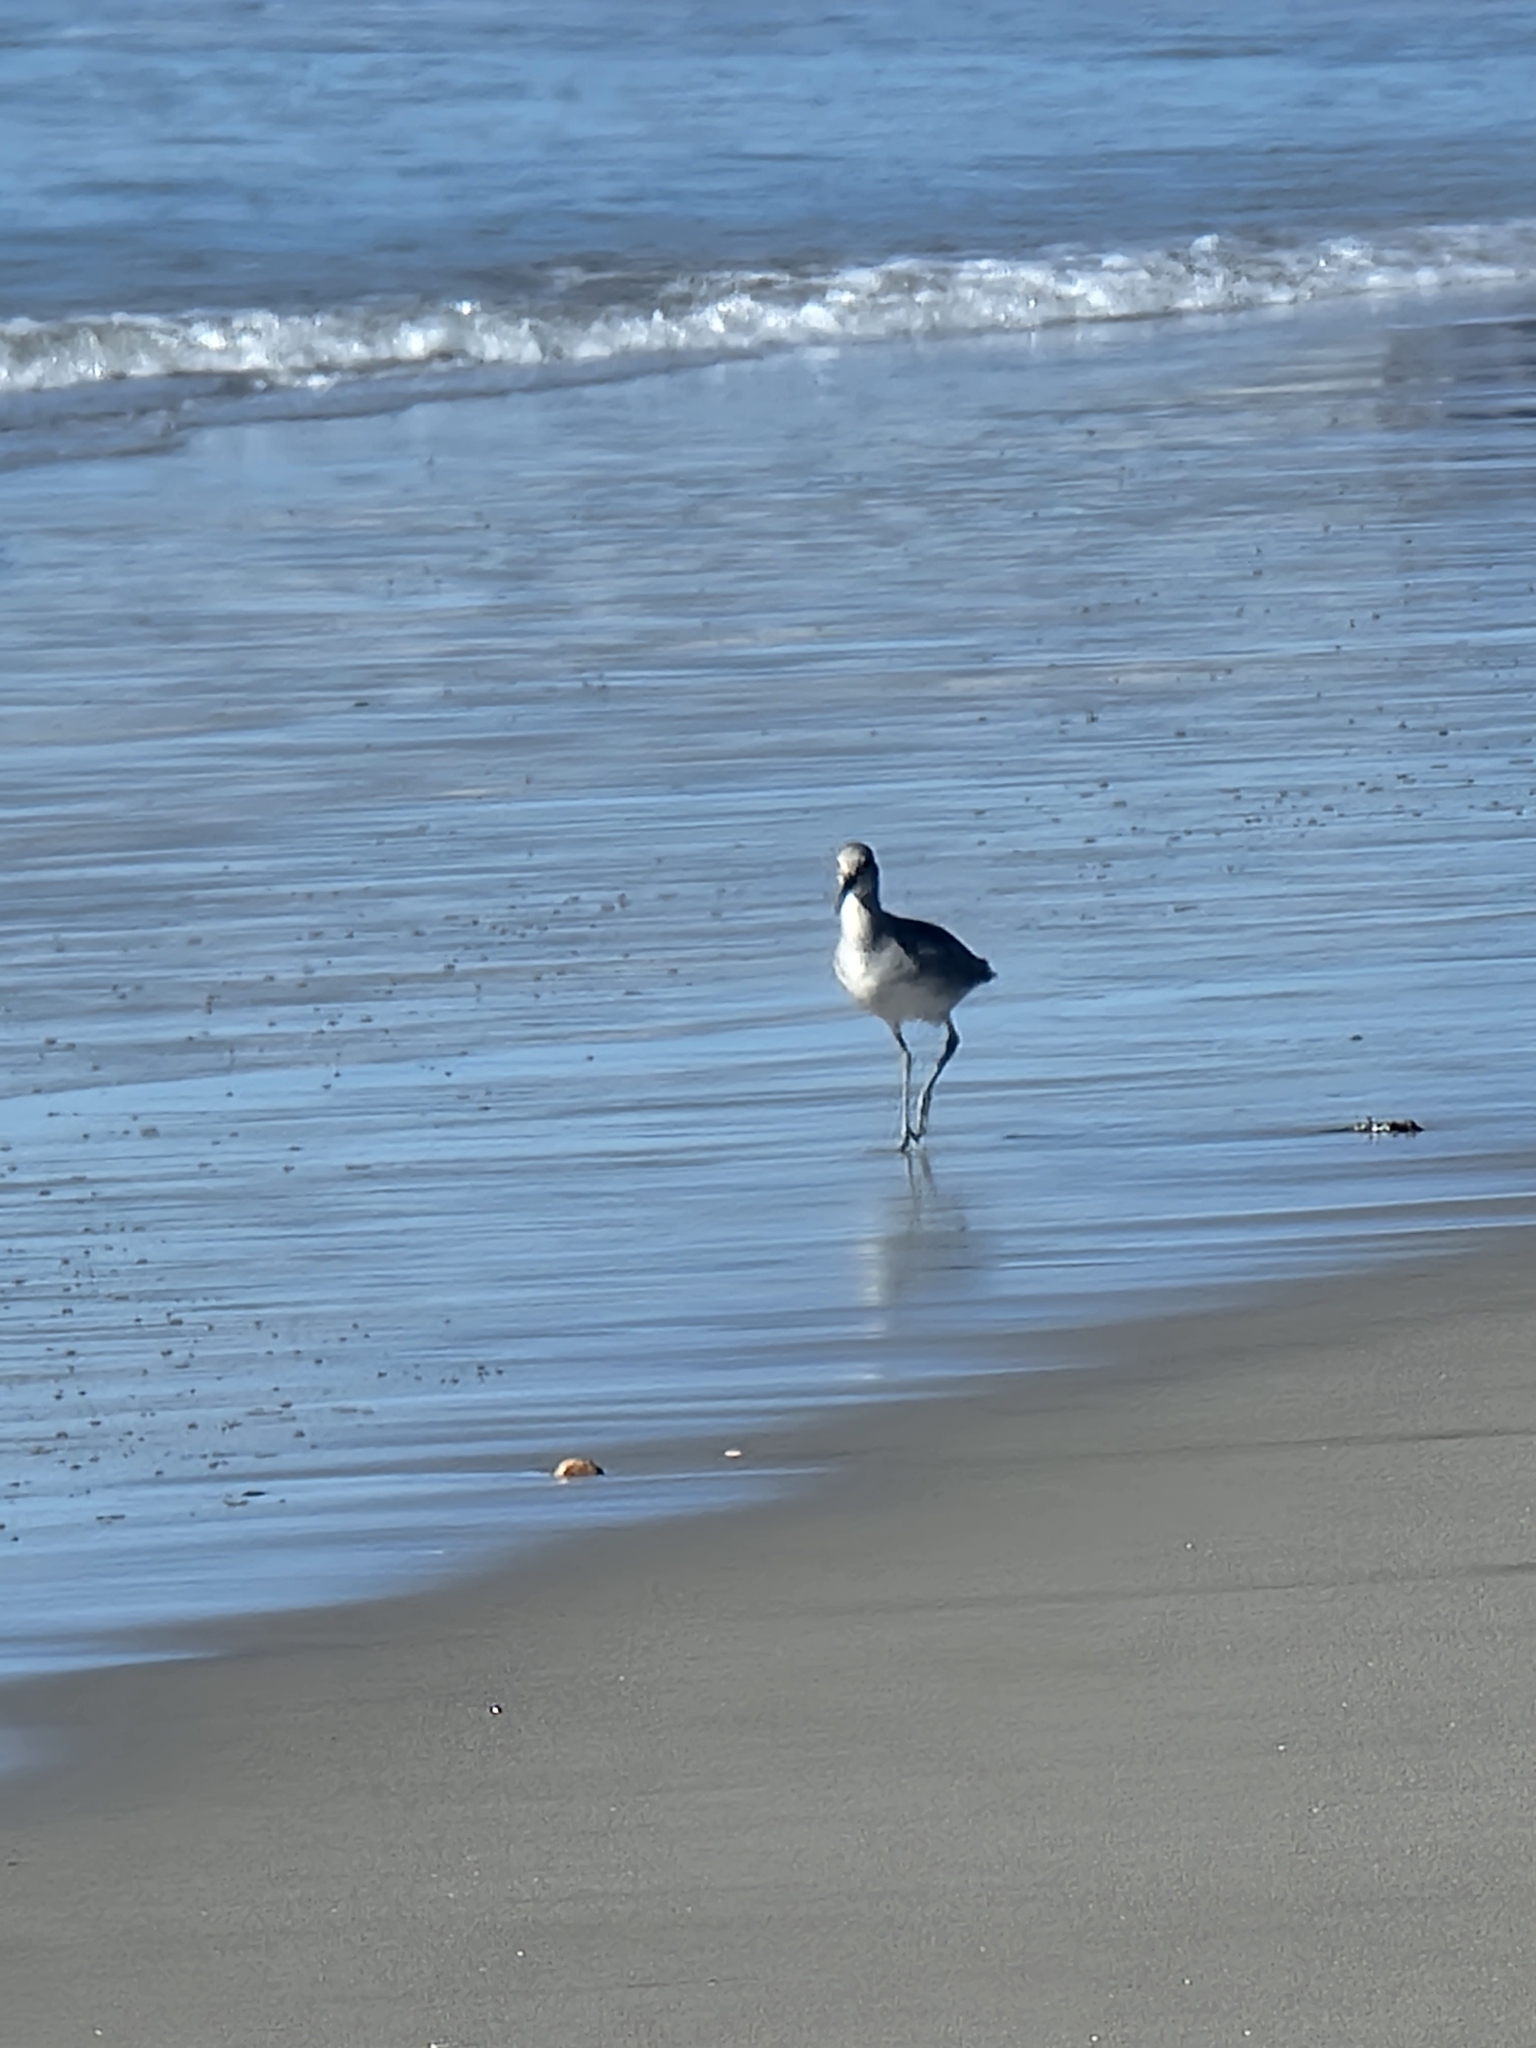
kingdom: Animalia
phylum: Chordata
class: Aves
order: Charadriiformes
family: Scolopacidae
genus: Tringa
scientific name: Tringa semipalmata
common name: Willet
